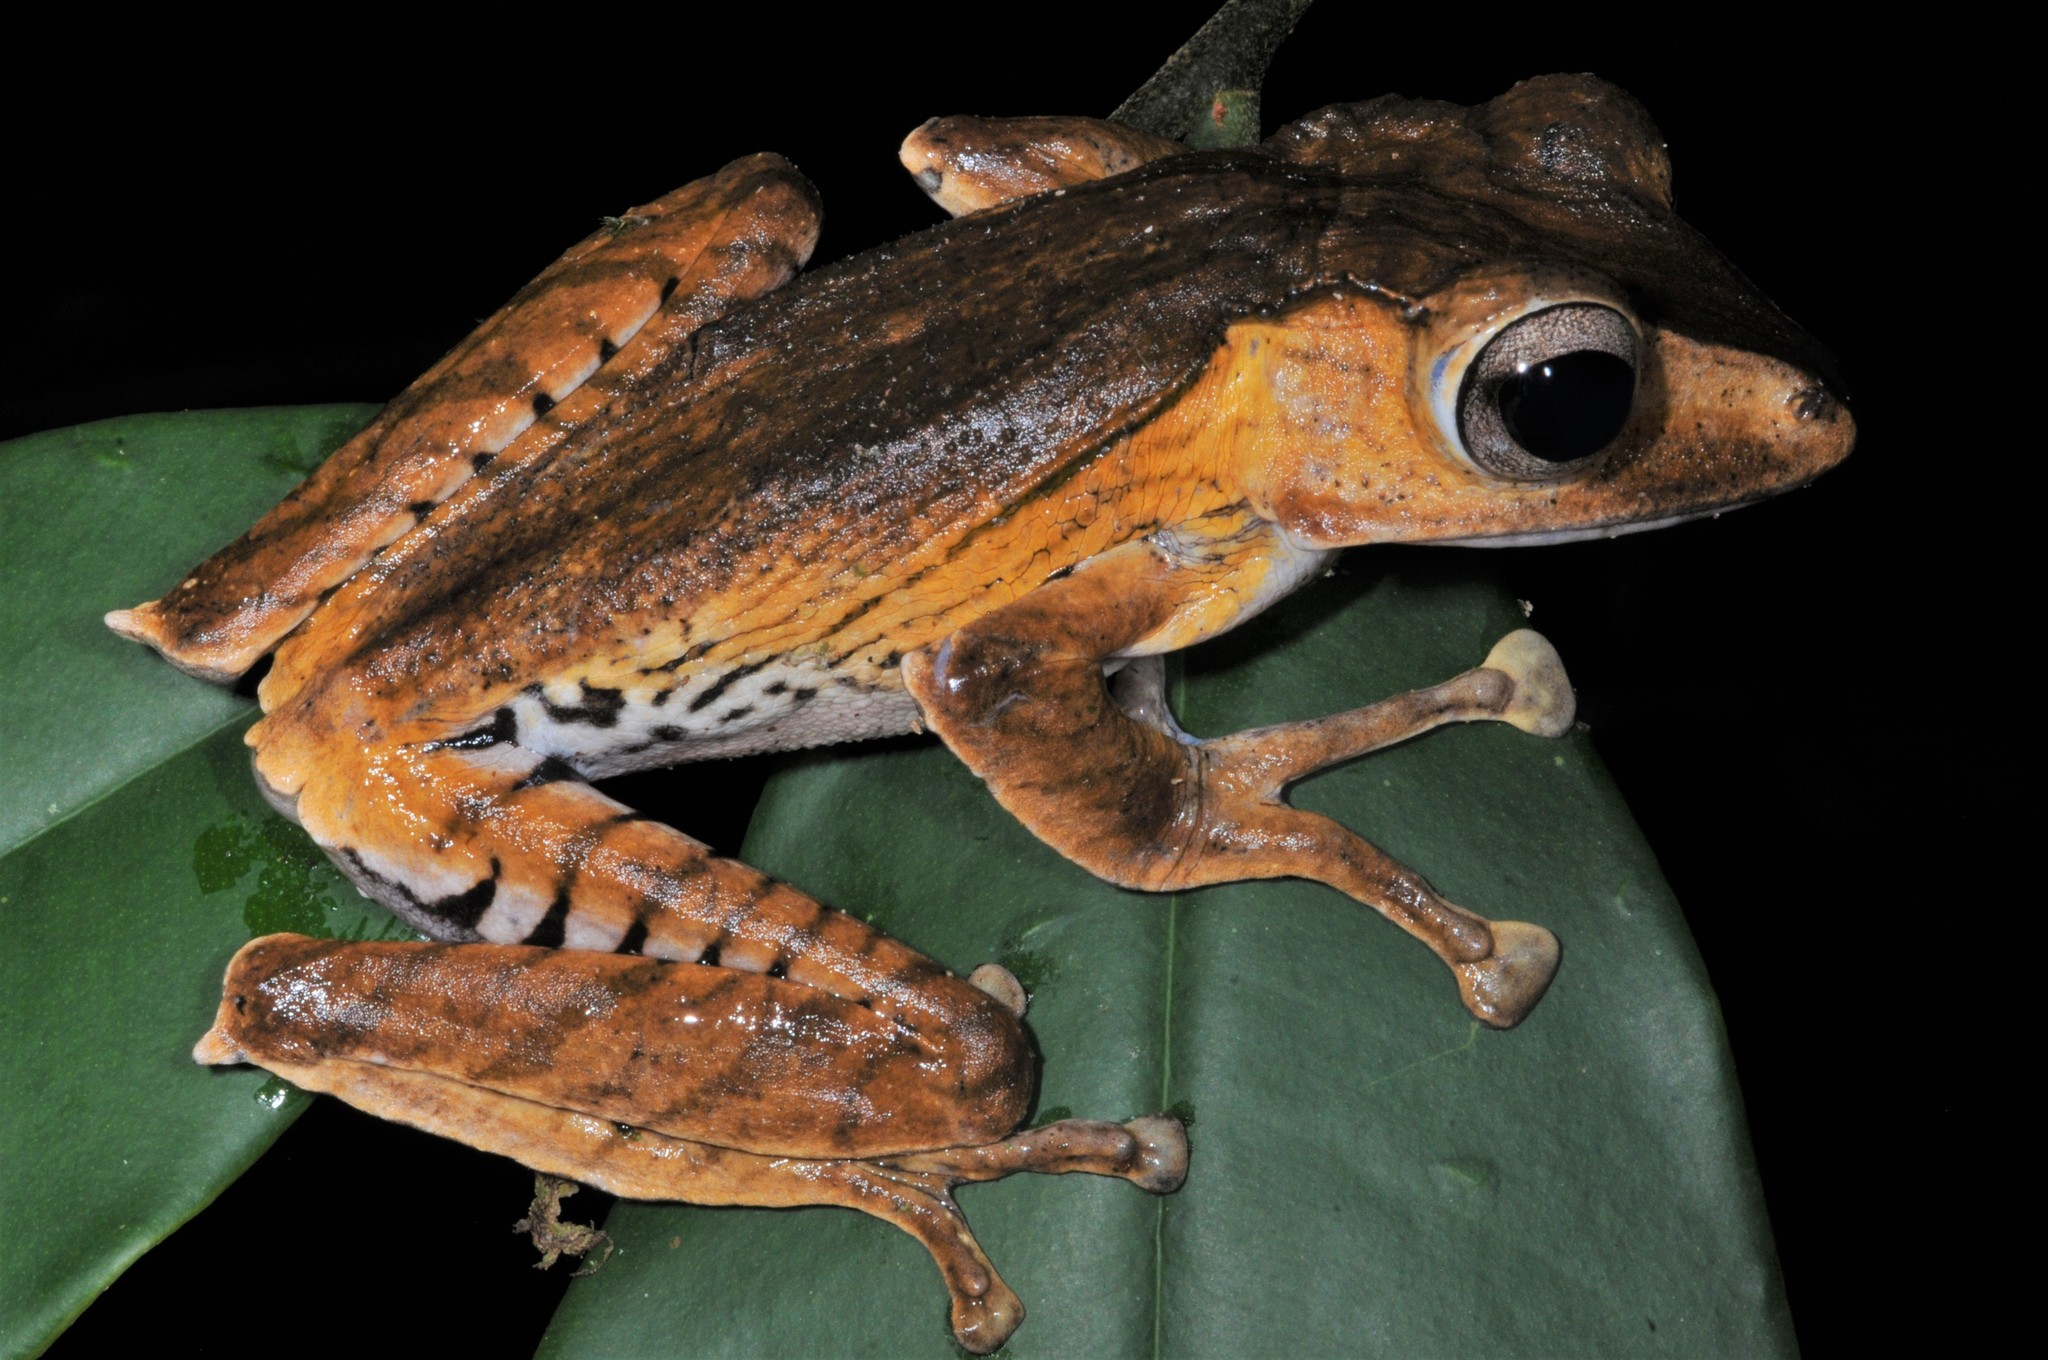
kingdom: Animalia
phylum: Chordata
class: Amphibia
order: Anura
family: Rhacophoridae
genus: Polypedates
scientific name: Polypedates otilophus
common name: File-eared tree frog
